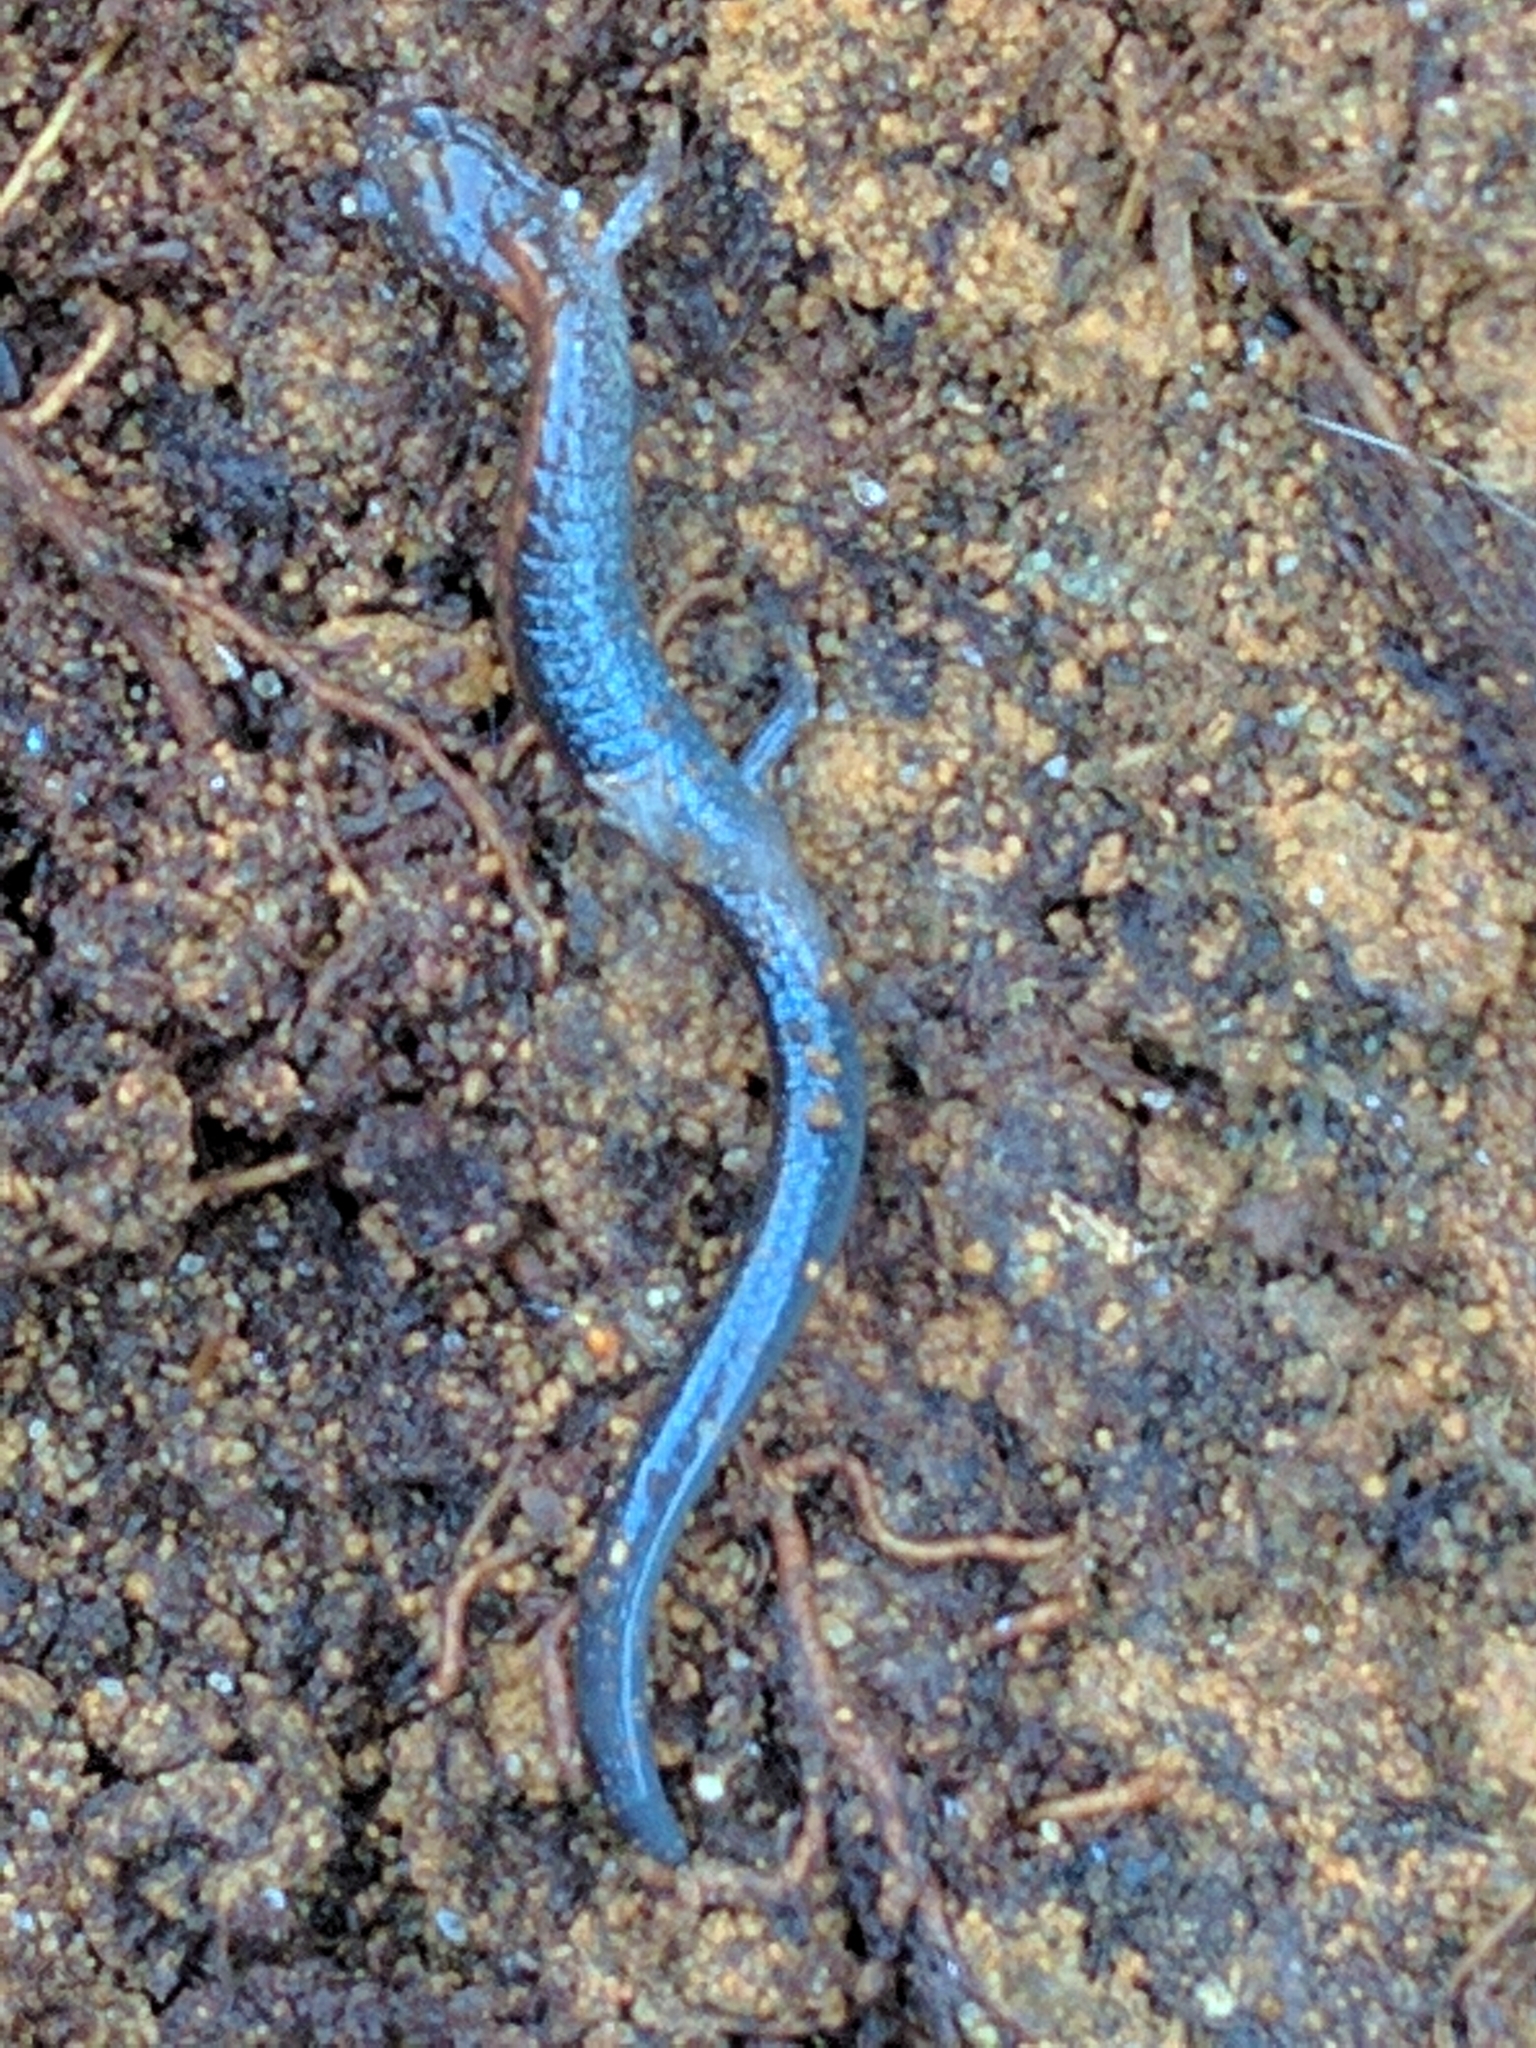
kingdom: Animalia
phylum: Chordata
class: Amphibia
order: Caudata
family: Plethodontidae
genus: Plethodon
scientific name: Plethodon cinereus
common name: Redback salamander
